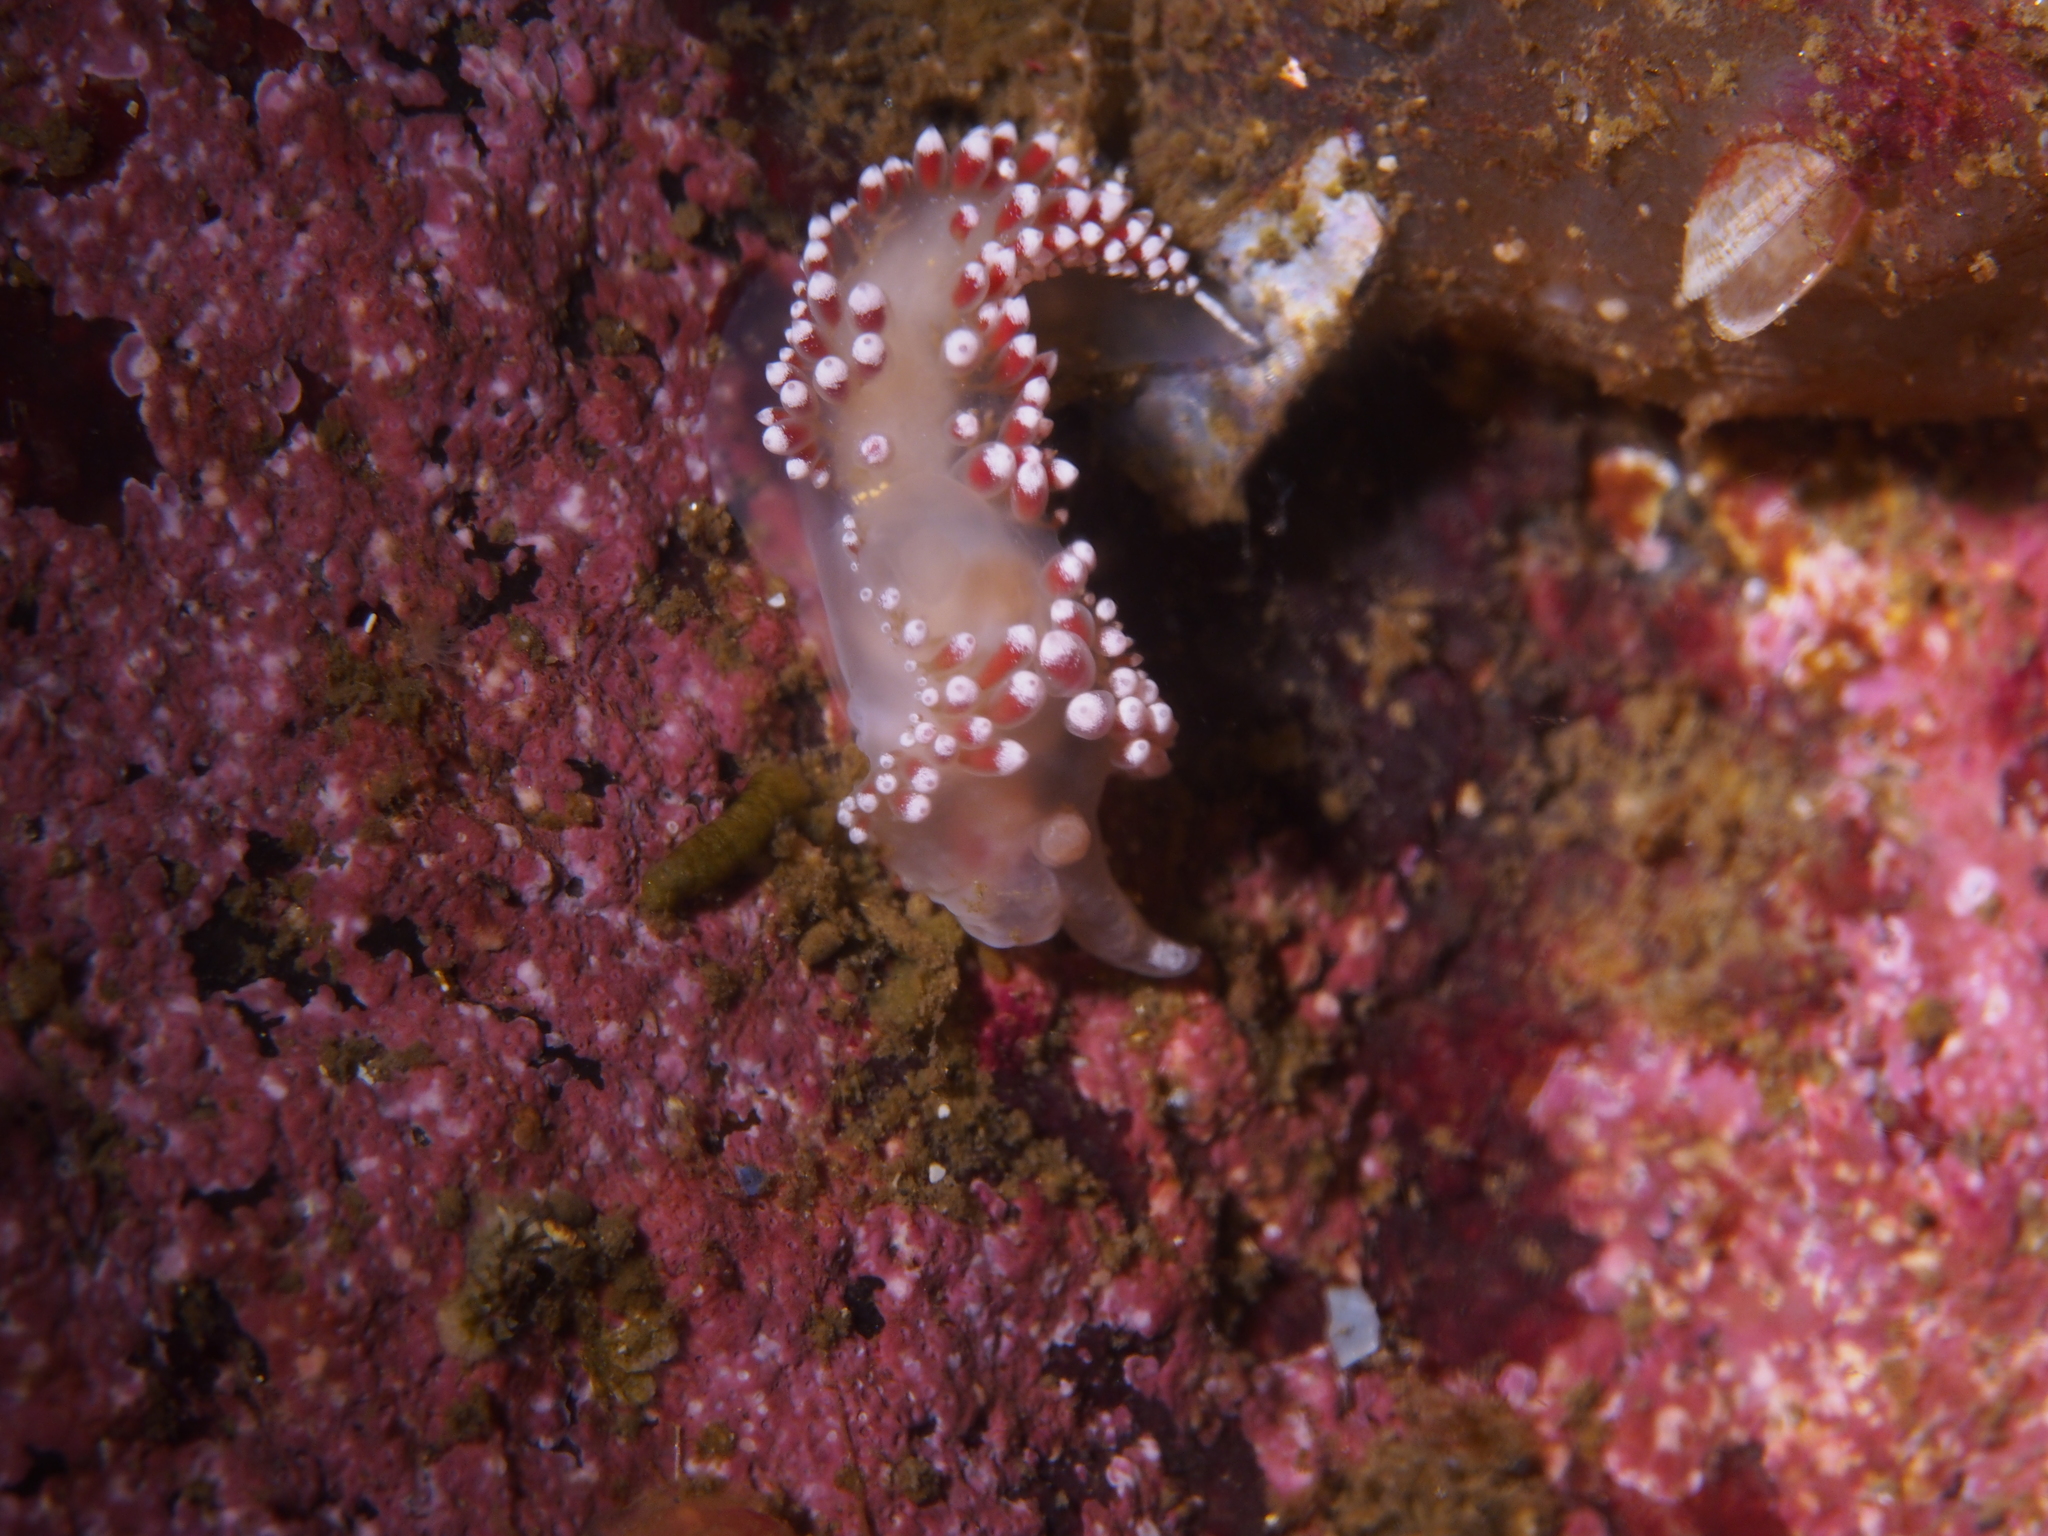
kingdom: Animalia
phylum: Mollusca
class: Gastropoda
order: Nudibranchia
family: Coryphellidae
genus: Coryphella
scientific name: Coryphella verrucosa
